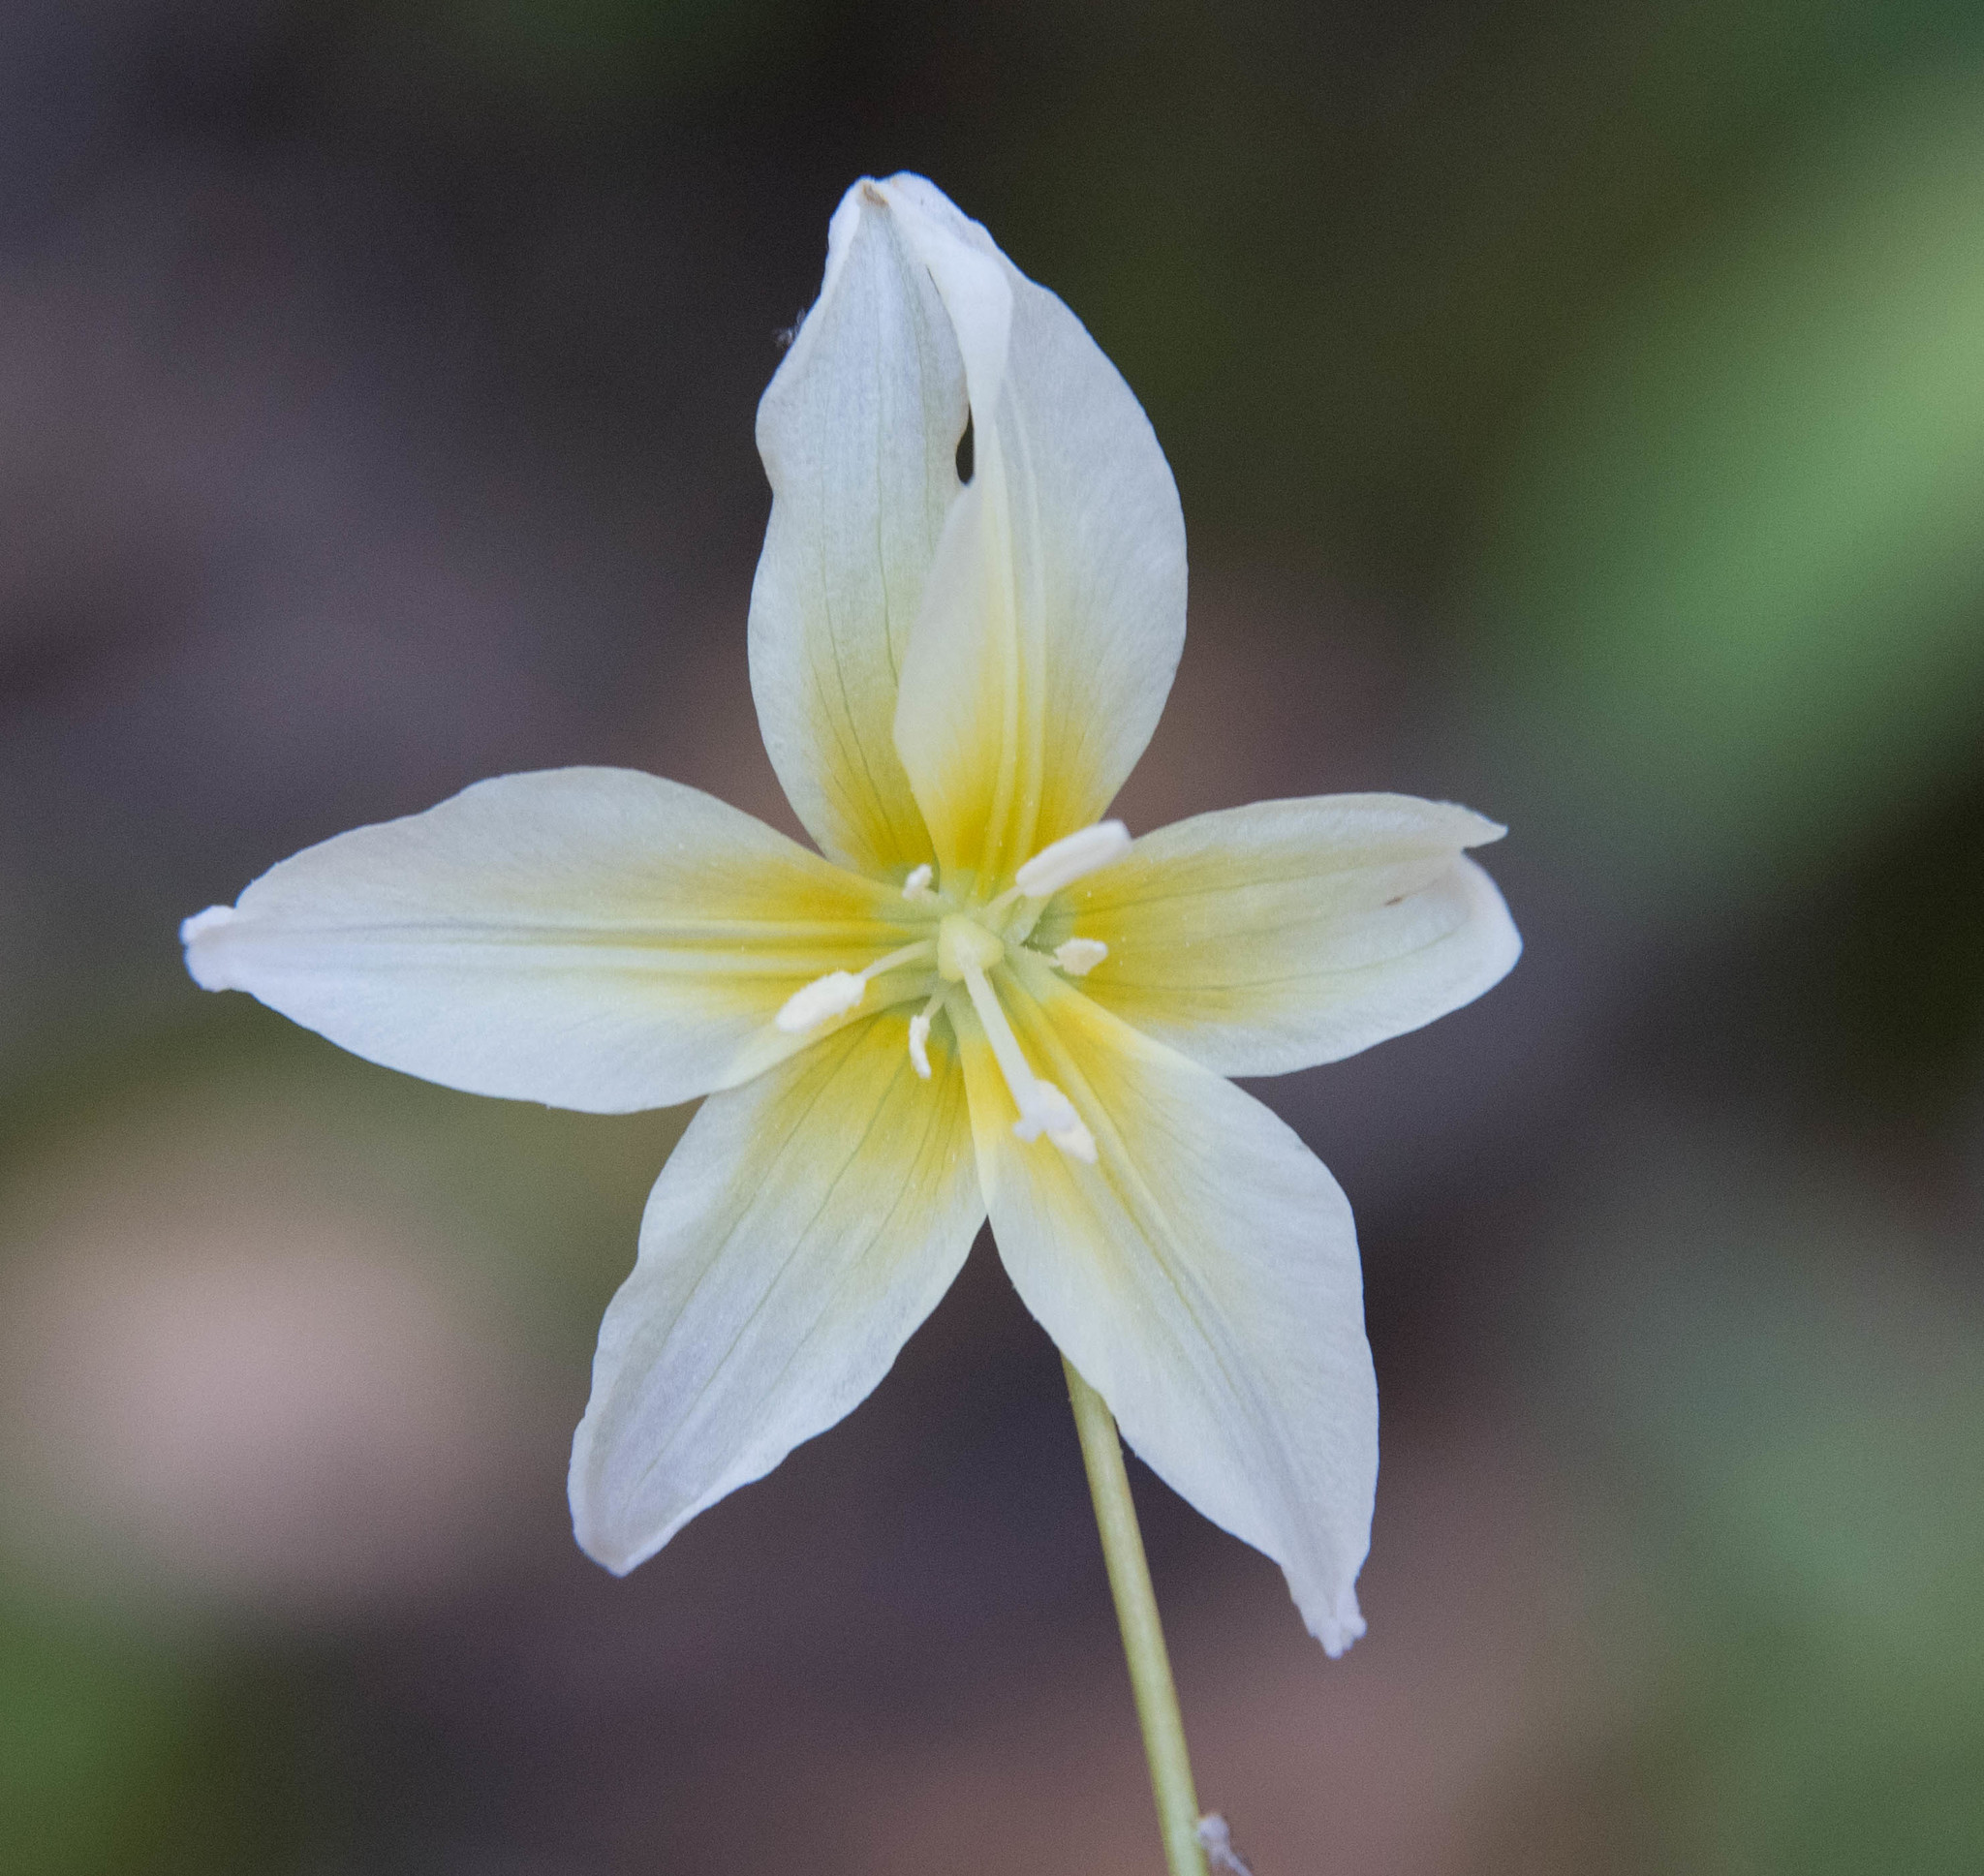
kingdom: Plantae
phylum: Tracheophyta
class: Liliopsida
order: Liliales
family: Liliaceae
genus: Erythronium
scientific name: Erythronium californicum
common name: Fawn-lily
